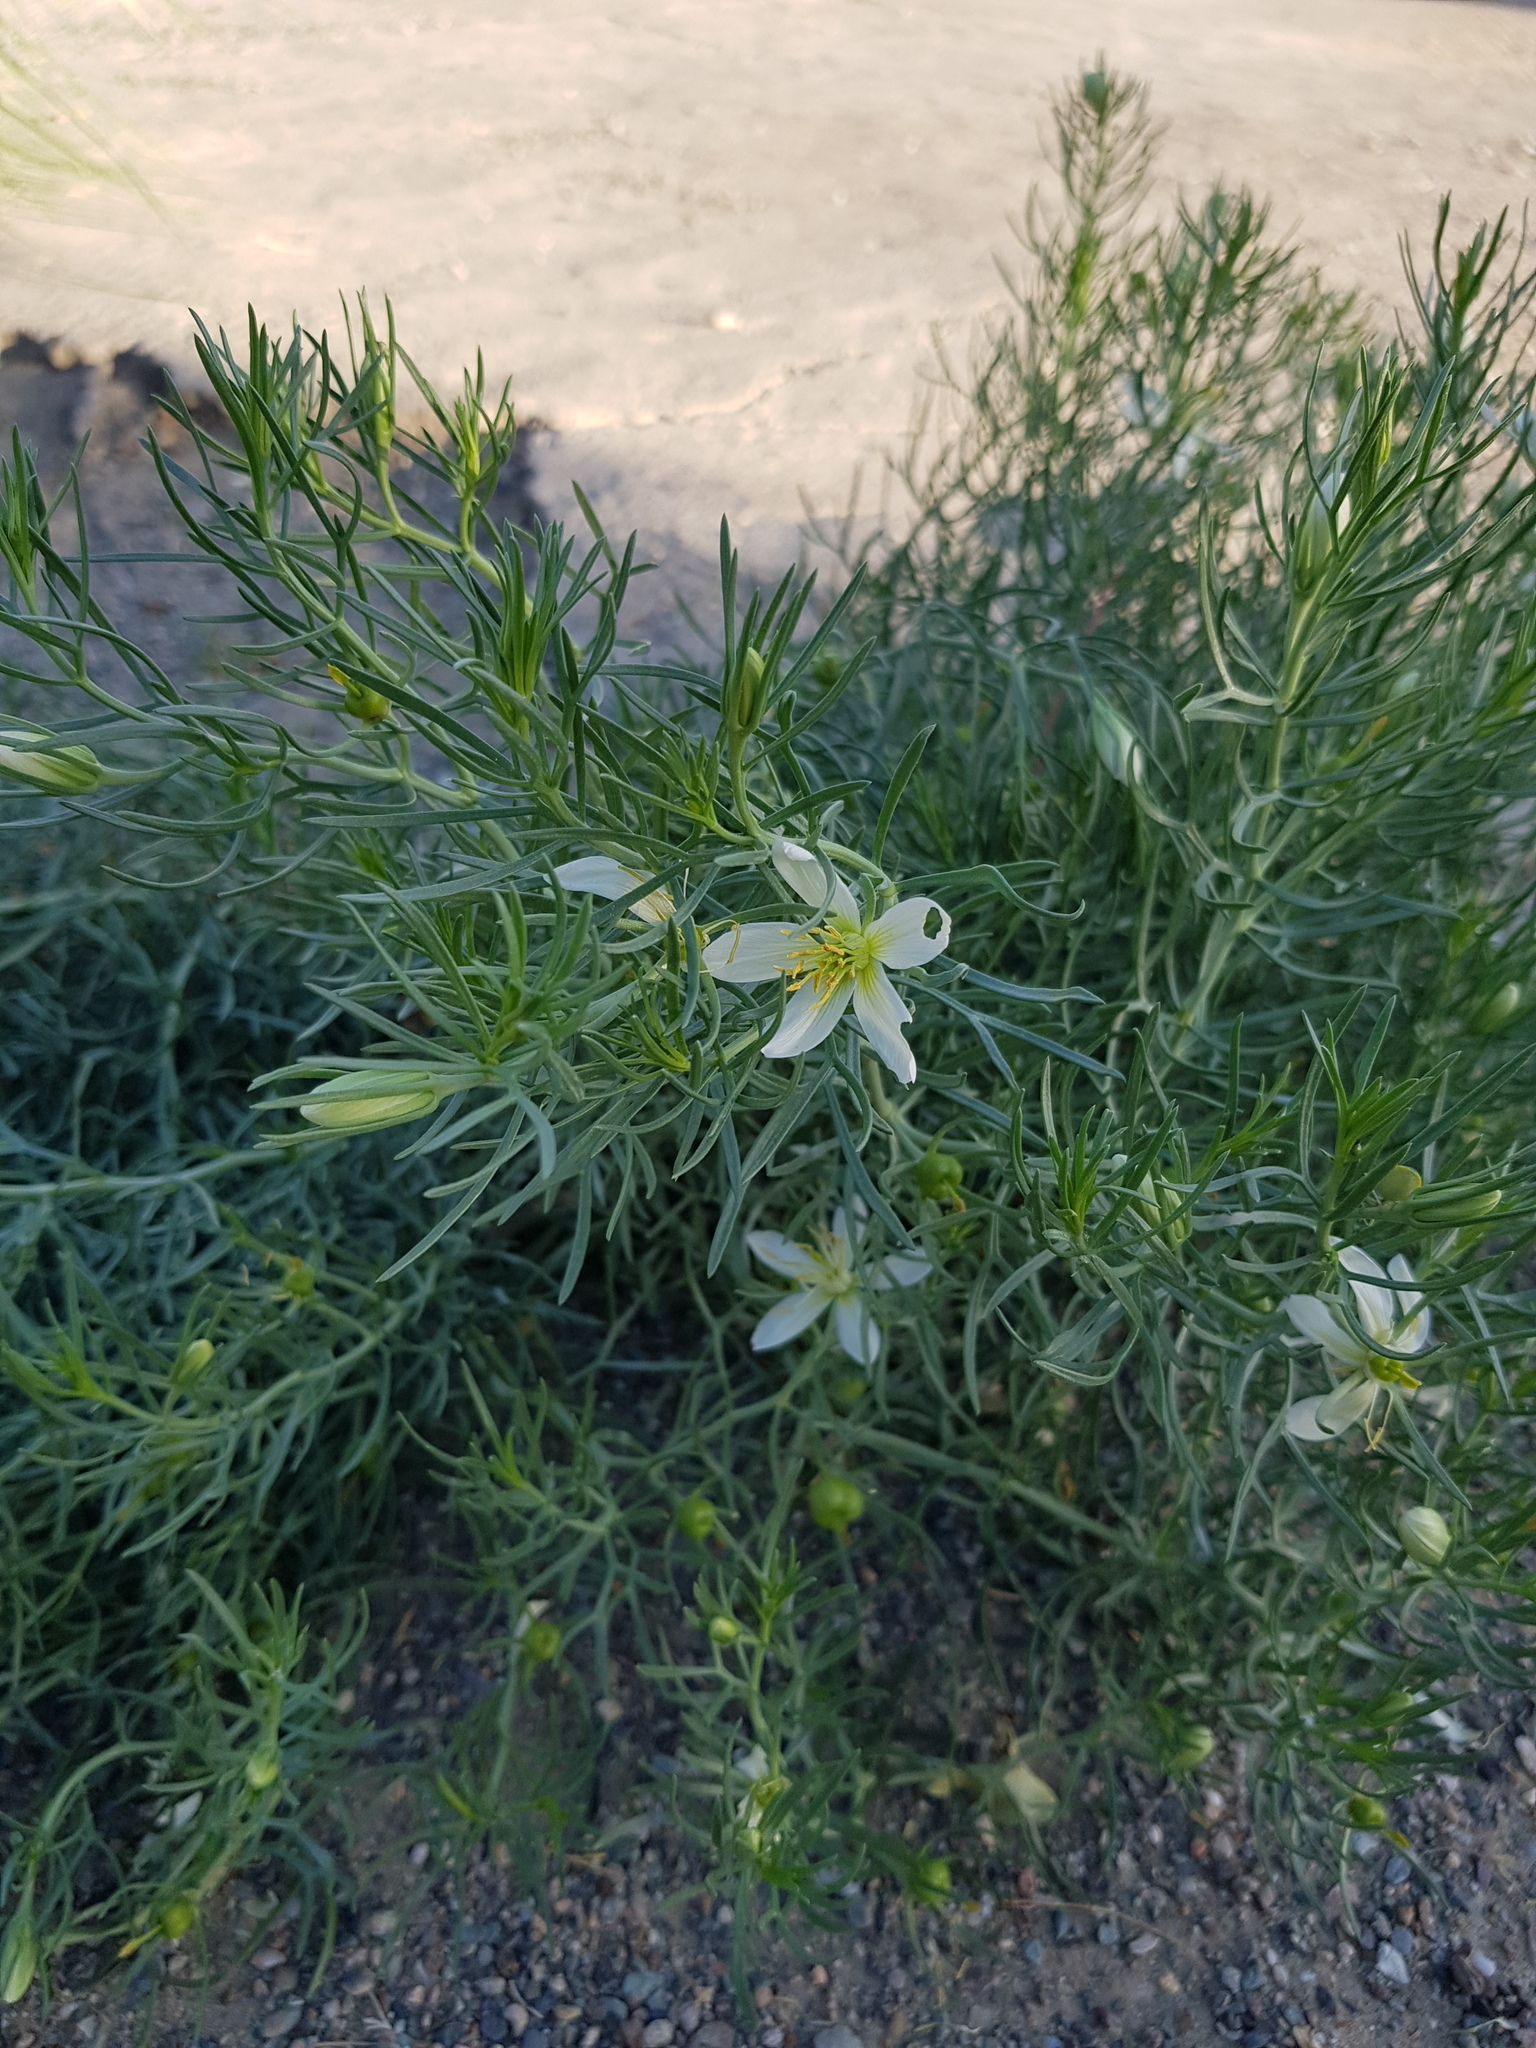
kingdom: Plantae
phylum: Tracheophyta
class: Magnoliopsida
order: Sapindales
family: Tetradiclidaceae
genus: Peganum
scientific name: Peganum harmala
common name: Harmal peganum
